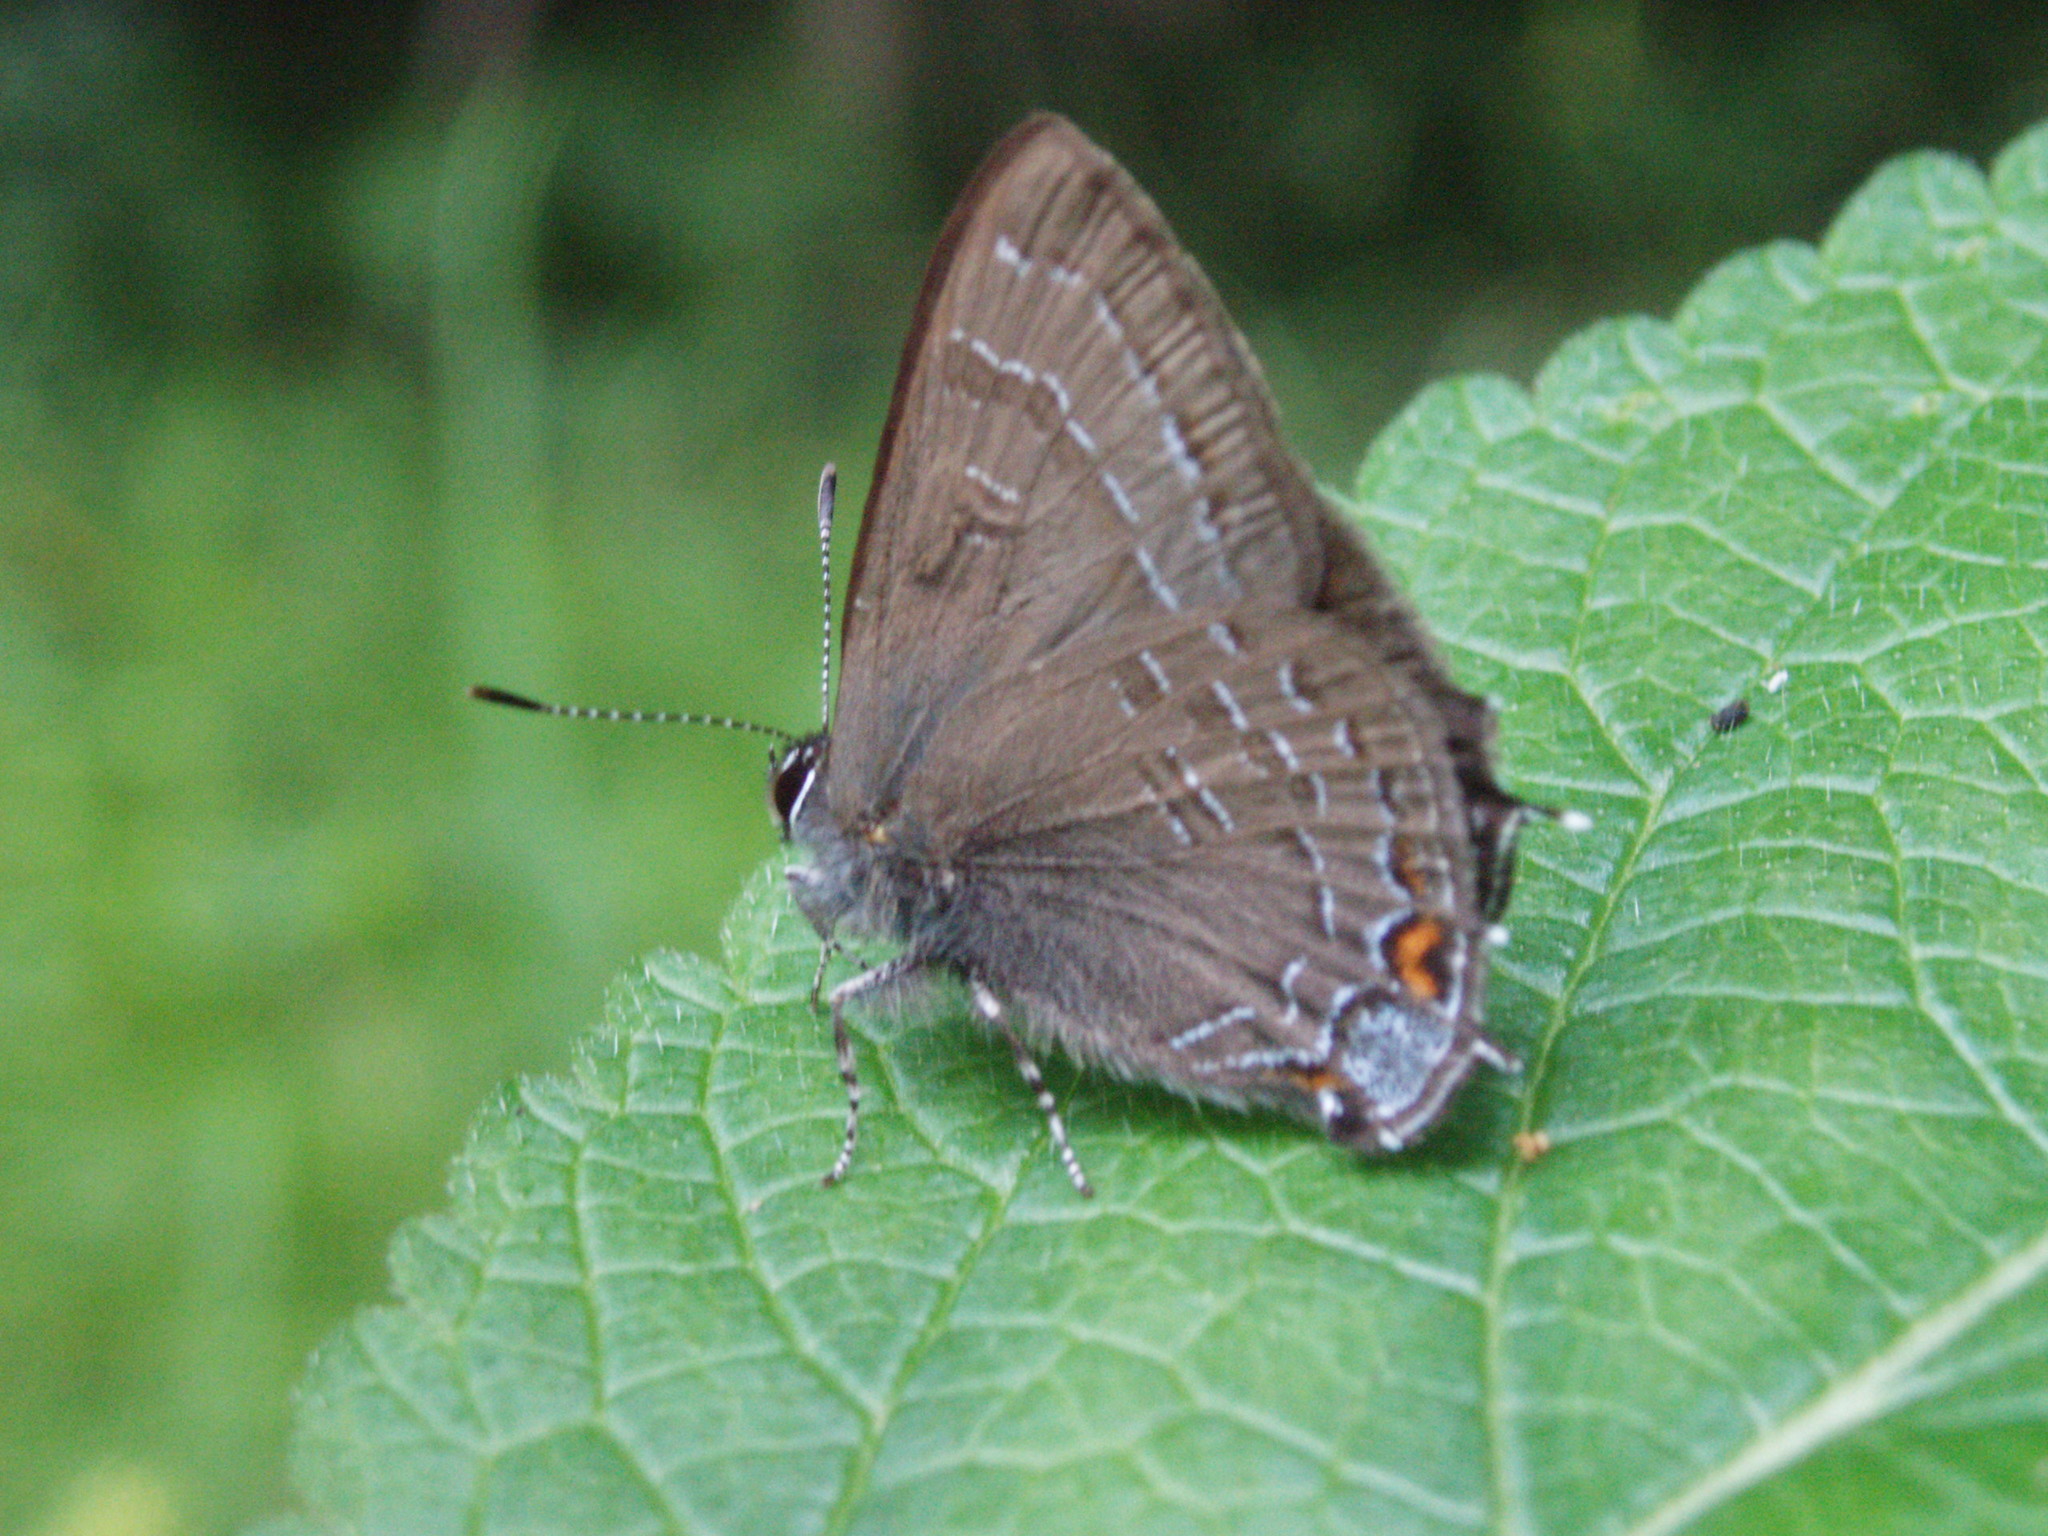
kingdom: Animalia
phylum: Arthropoda
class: Insecta
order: Lepidoptera
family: Lycaenidae
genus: Satyrium
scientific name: Satyrium calanus
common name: Banded hairstreak
